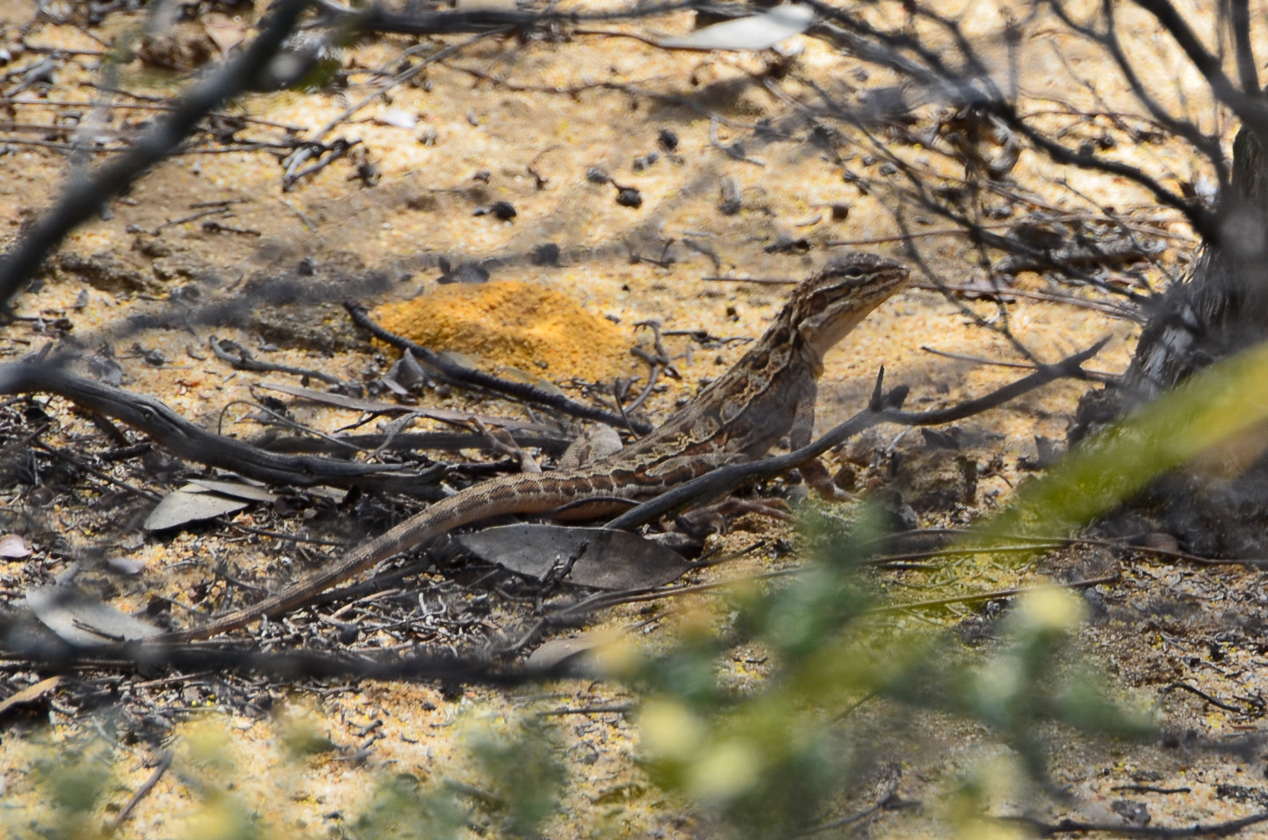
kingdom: Animalia
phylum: Chordata
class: Squamata
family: Agamidae
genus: Ctenophorus
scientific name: Ctenophorus scutulatus
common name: Lozenge-marked dragon
